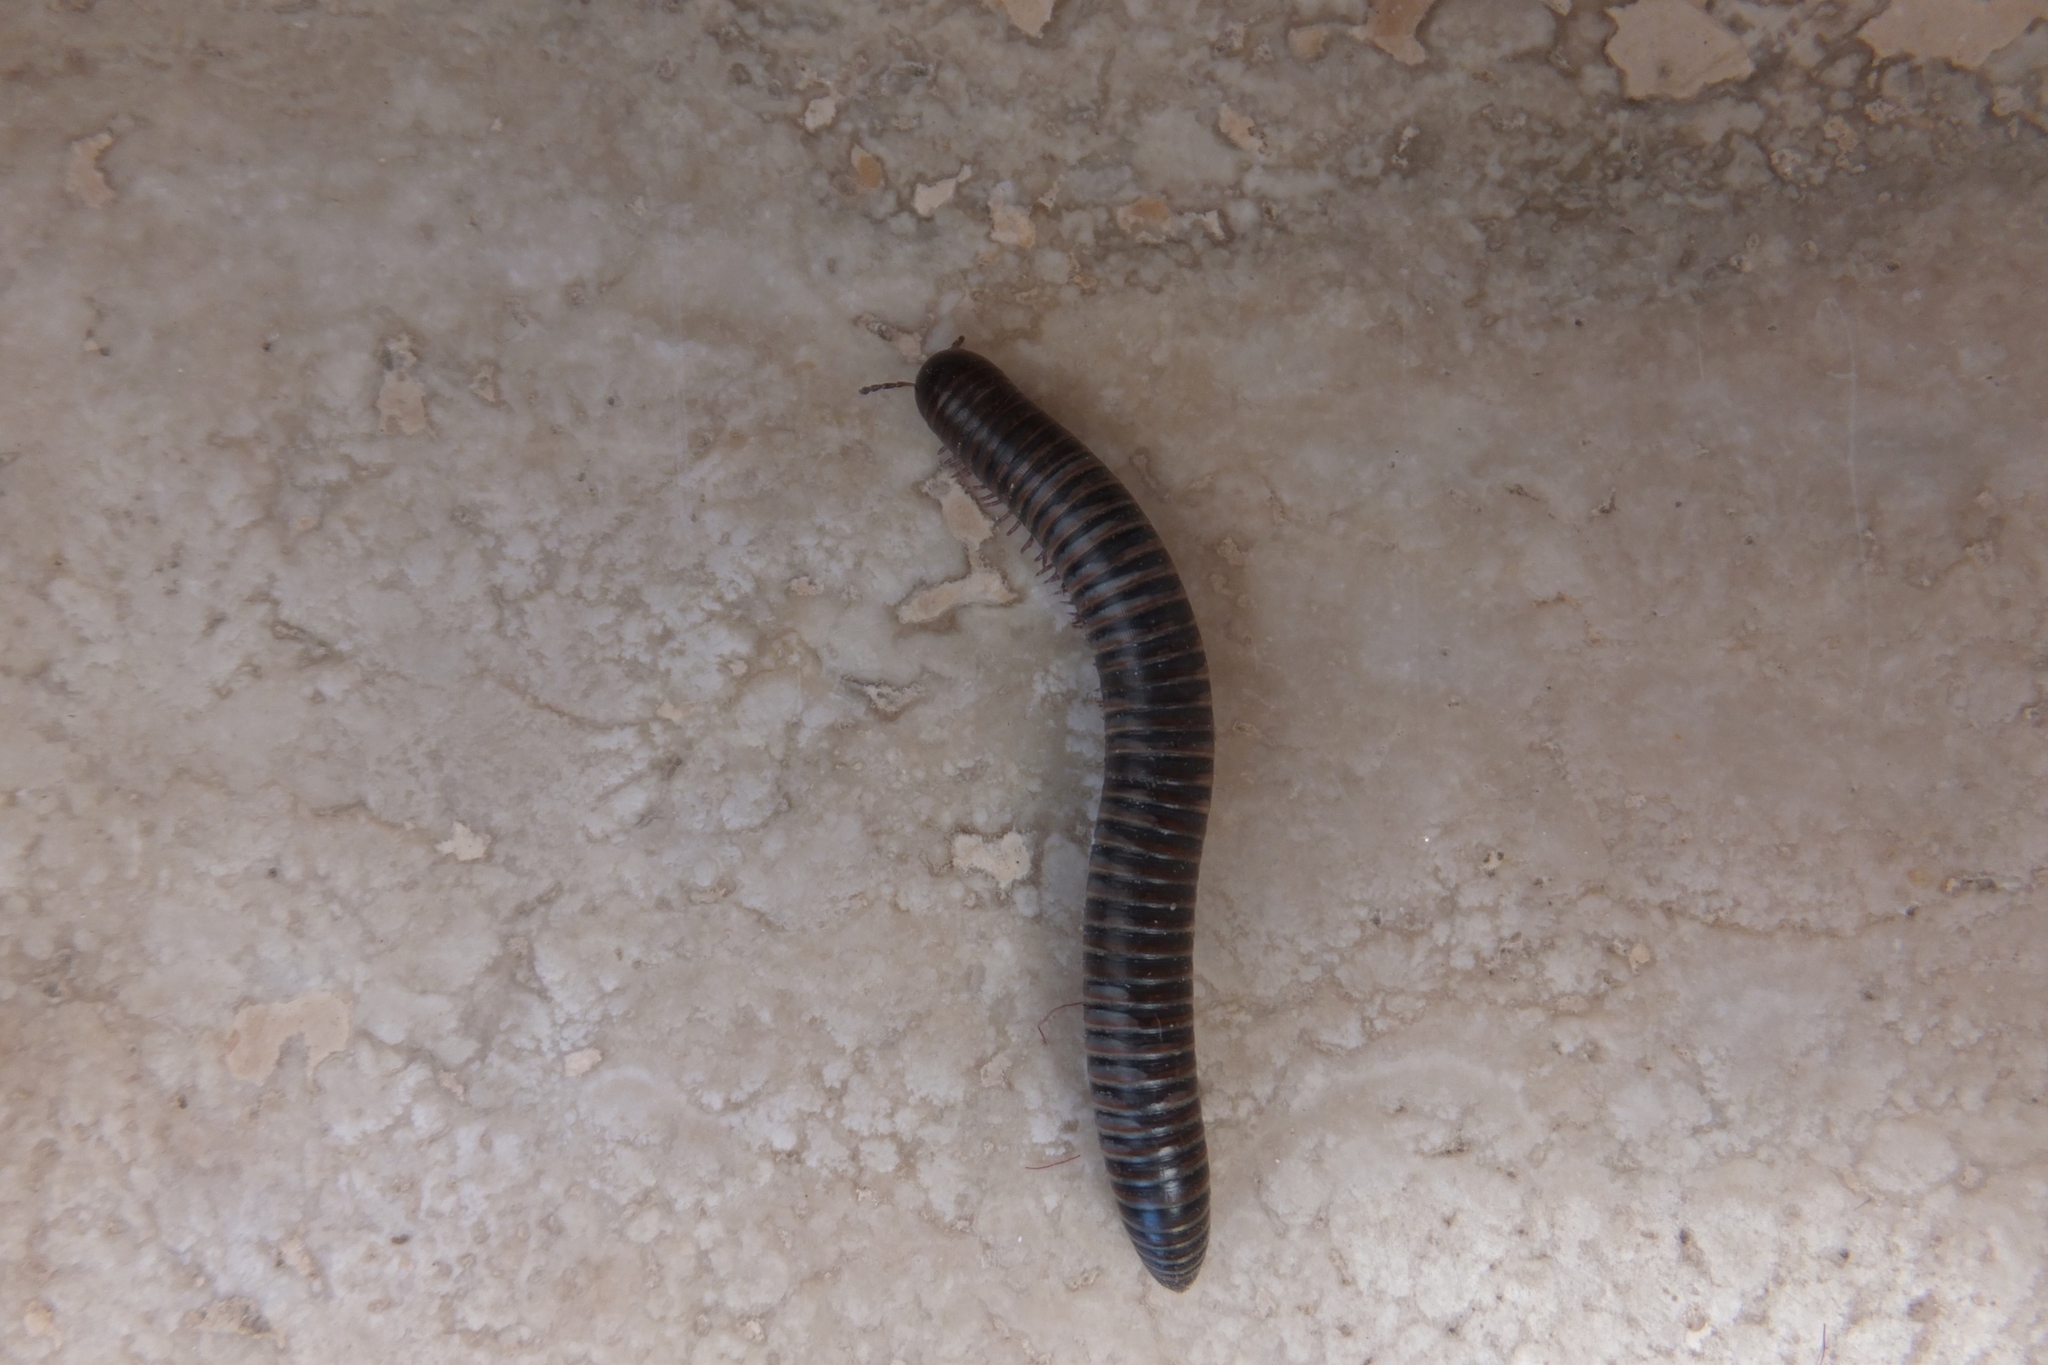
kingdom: Animalia
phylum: Arthropoda
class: Diplopoda
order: Julida
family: Julidae
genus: Acanthoiulus
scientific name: Acanthoiulus cassinensis
